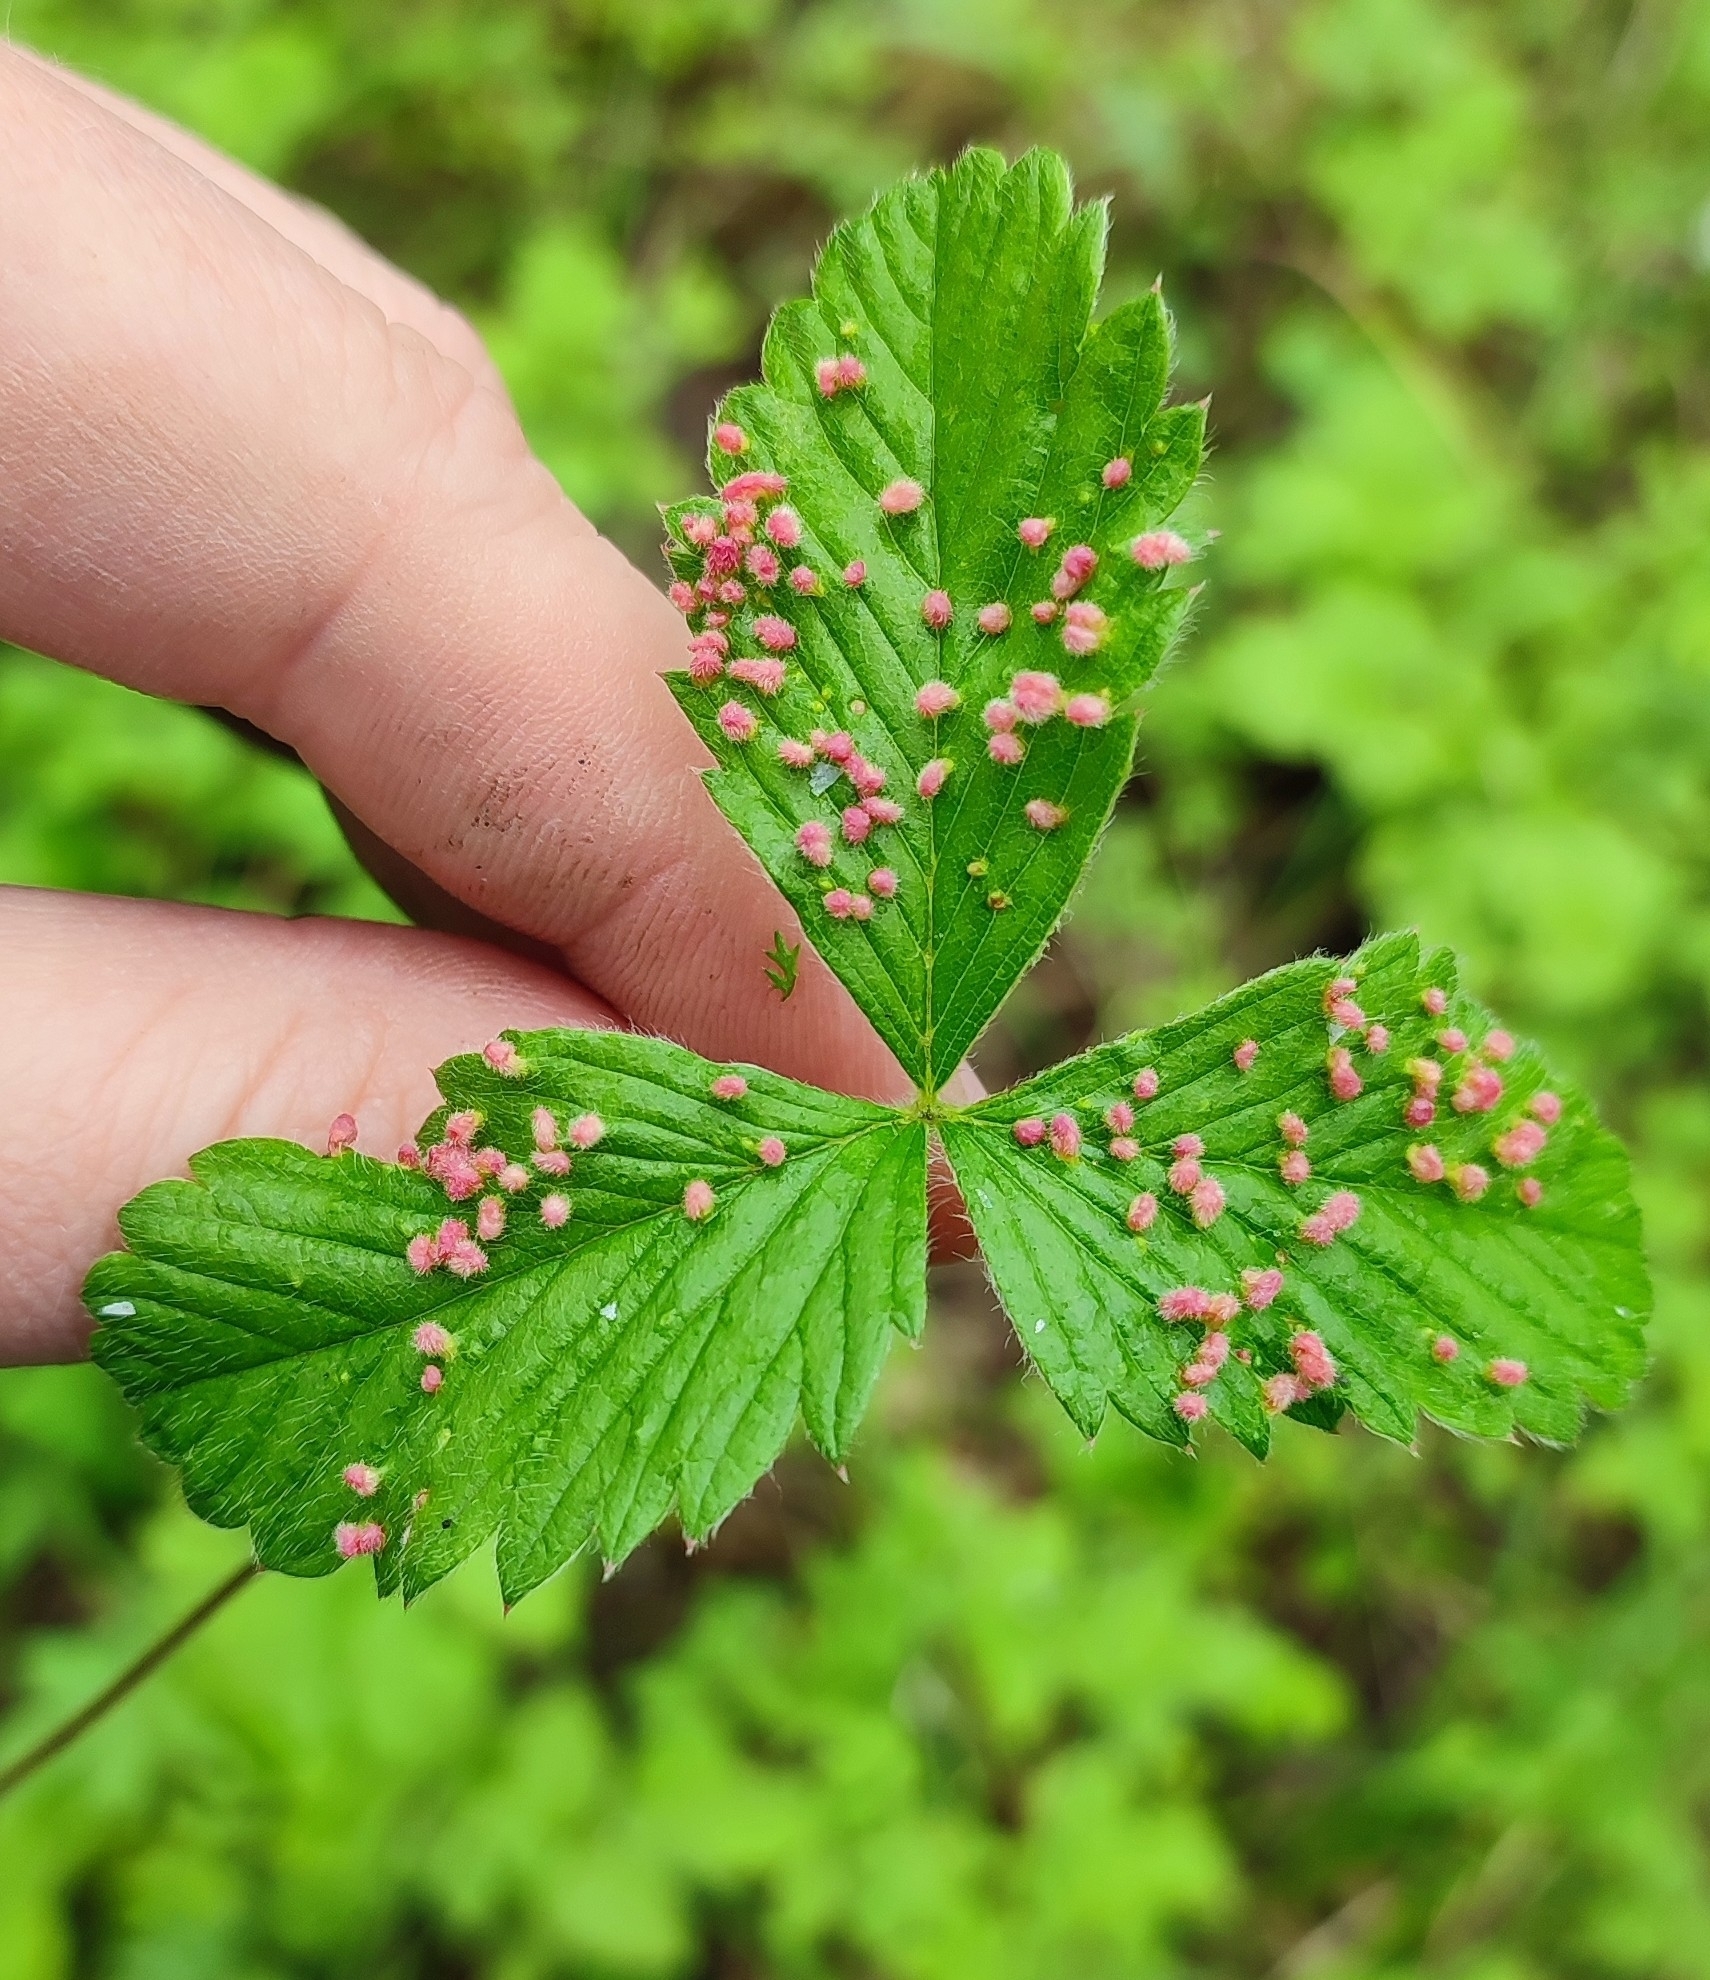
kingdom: Animalia
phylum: Arthropoda
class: Arachnida
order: Trombidiformes
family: Phytoptidae
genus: Fragariocoptes
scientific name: Fragariocoptes setiger
